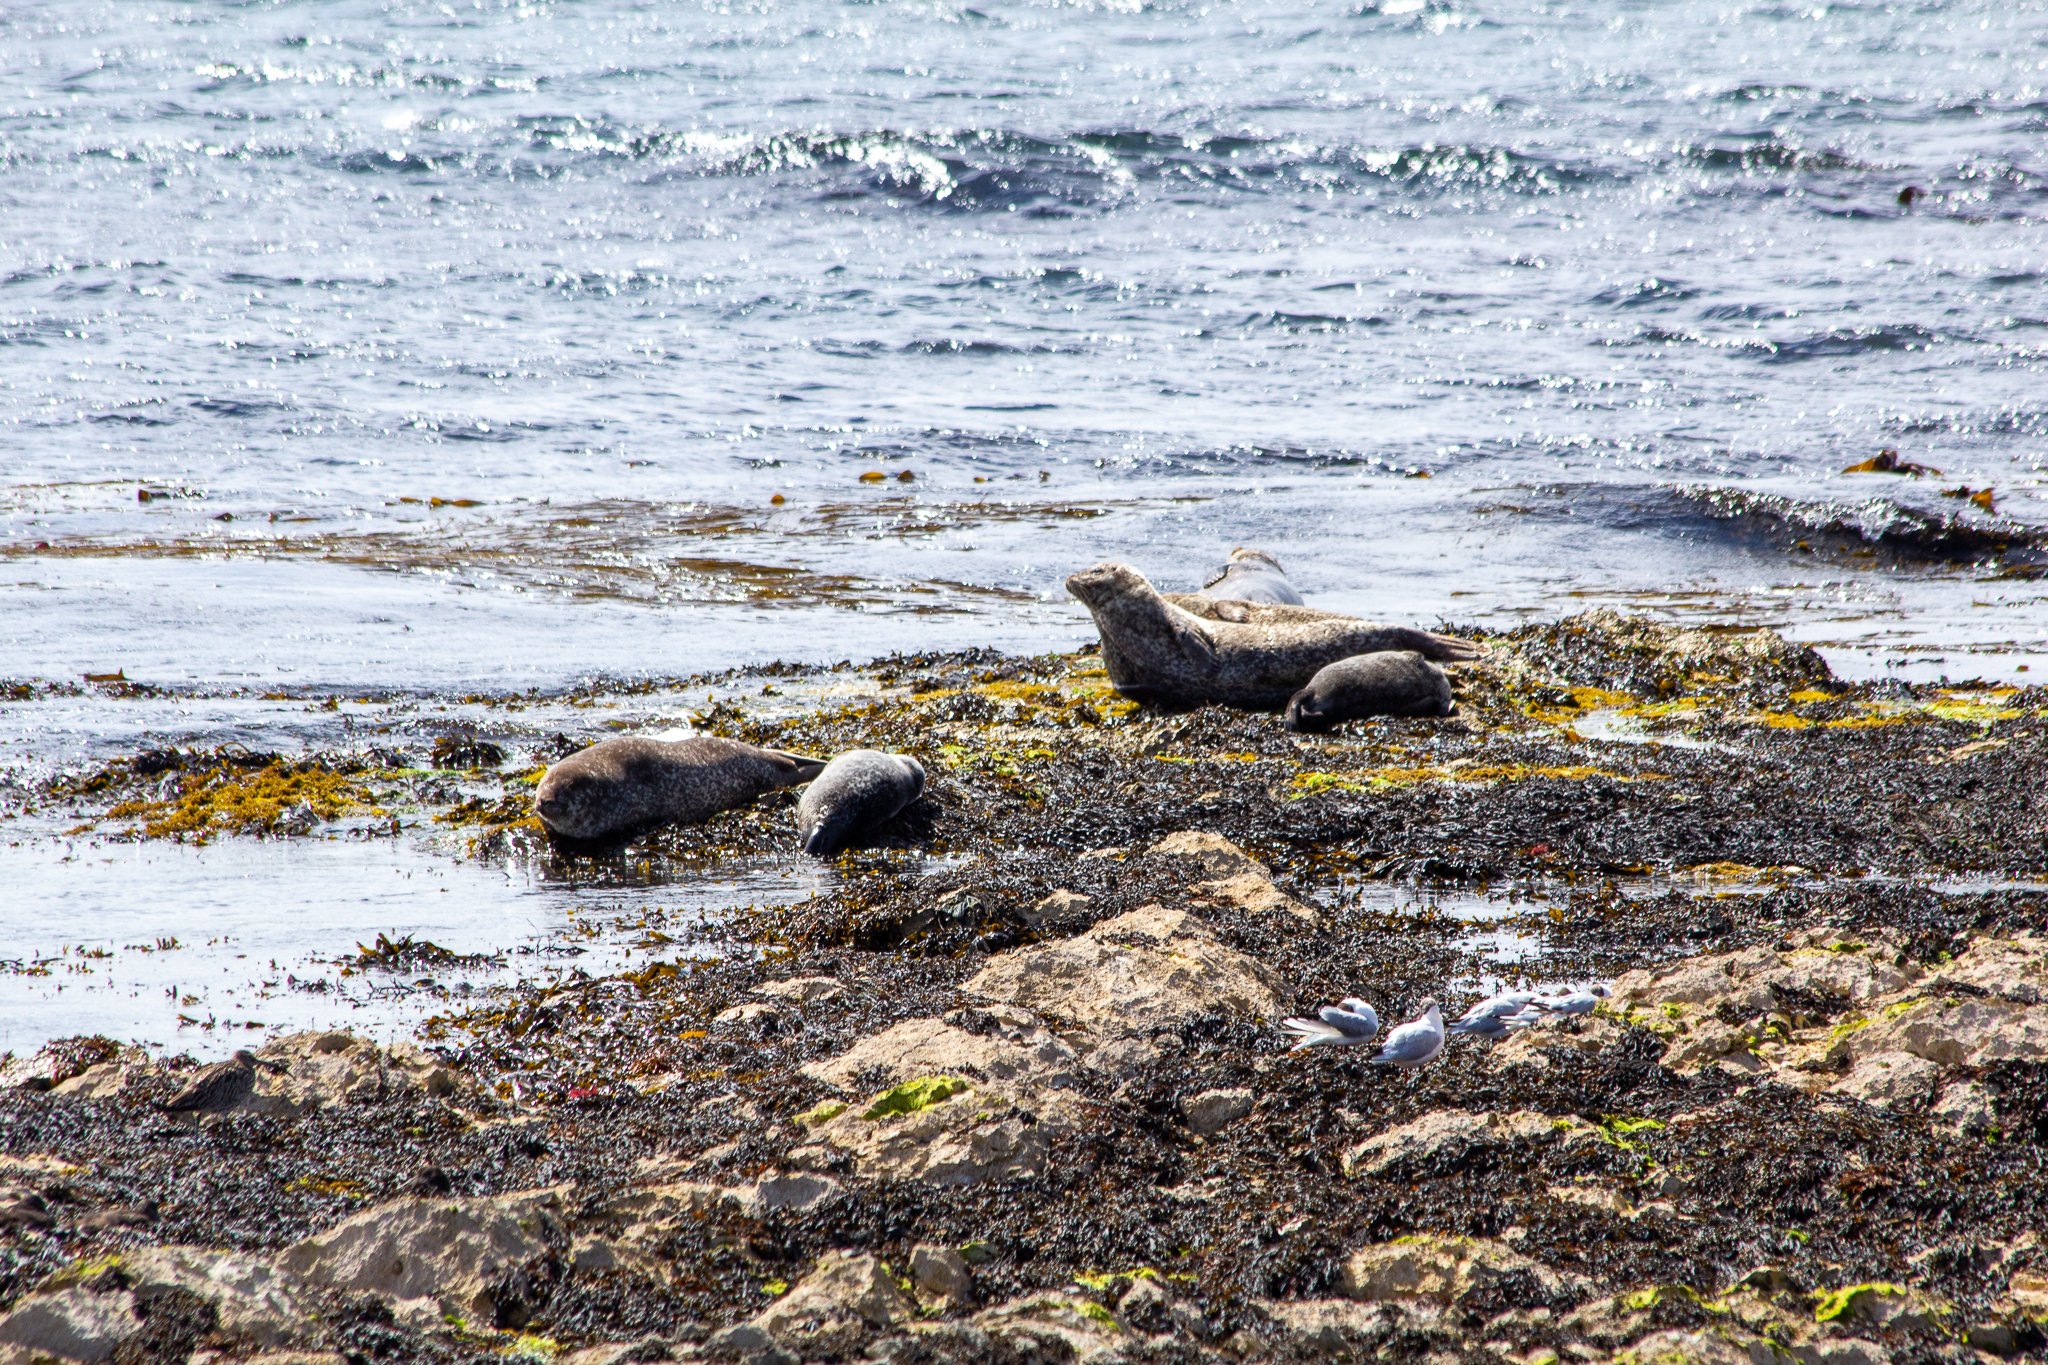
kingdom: Animalia
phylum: Chordata
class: Mammalia
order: Carnivora
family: Phocidae
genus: Phoca
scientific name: Phoca vitulina
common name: Harbor seal
